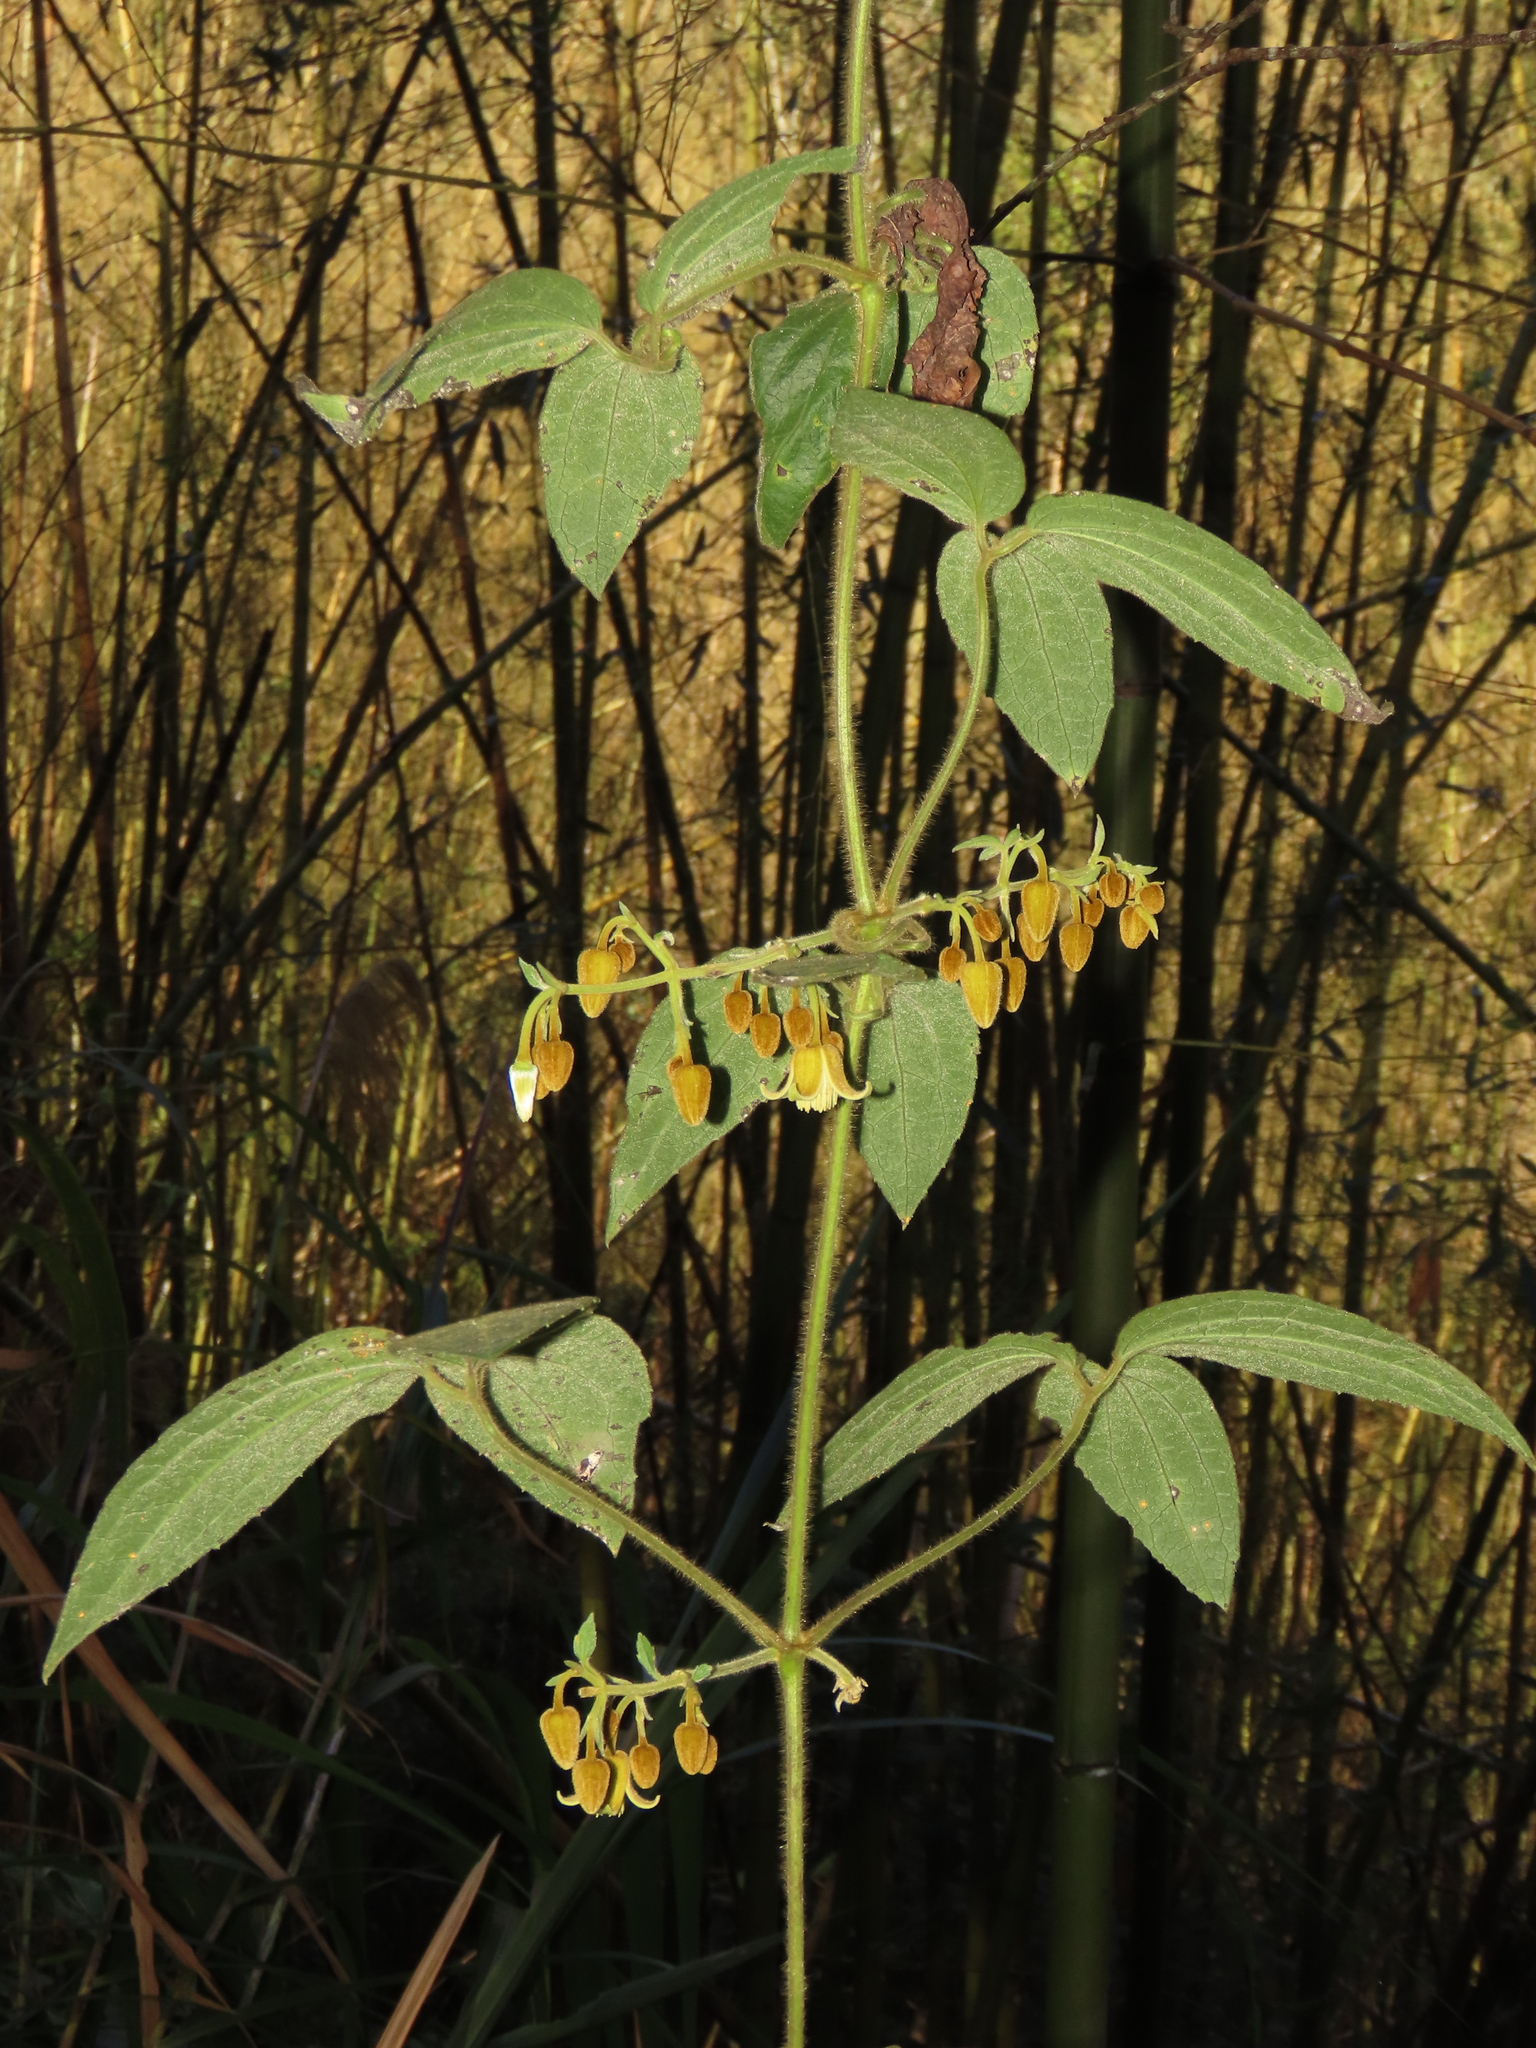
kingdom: Plantae
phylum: Tracheophyta
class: Magnoliopsida
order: Ranunculales
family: Ranunculaceae
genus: Clematis
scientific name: Clematis leschenaultiana
